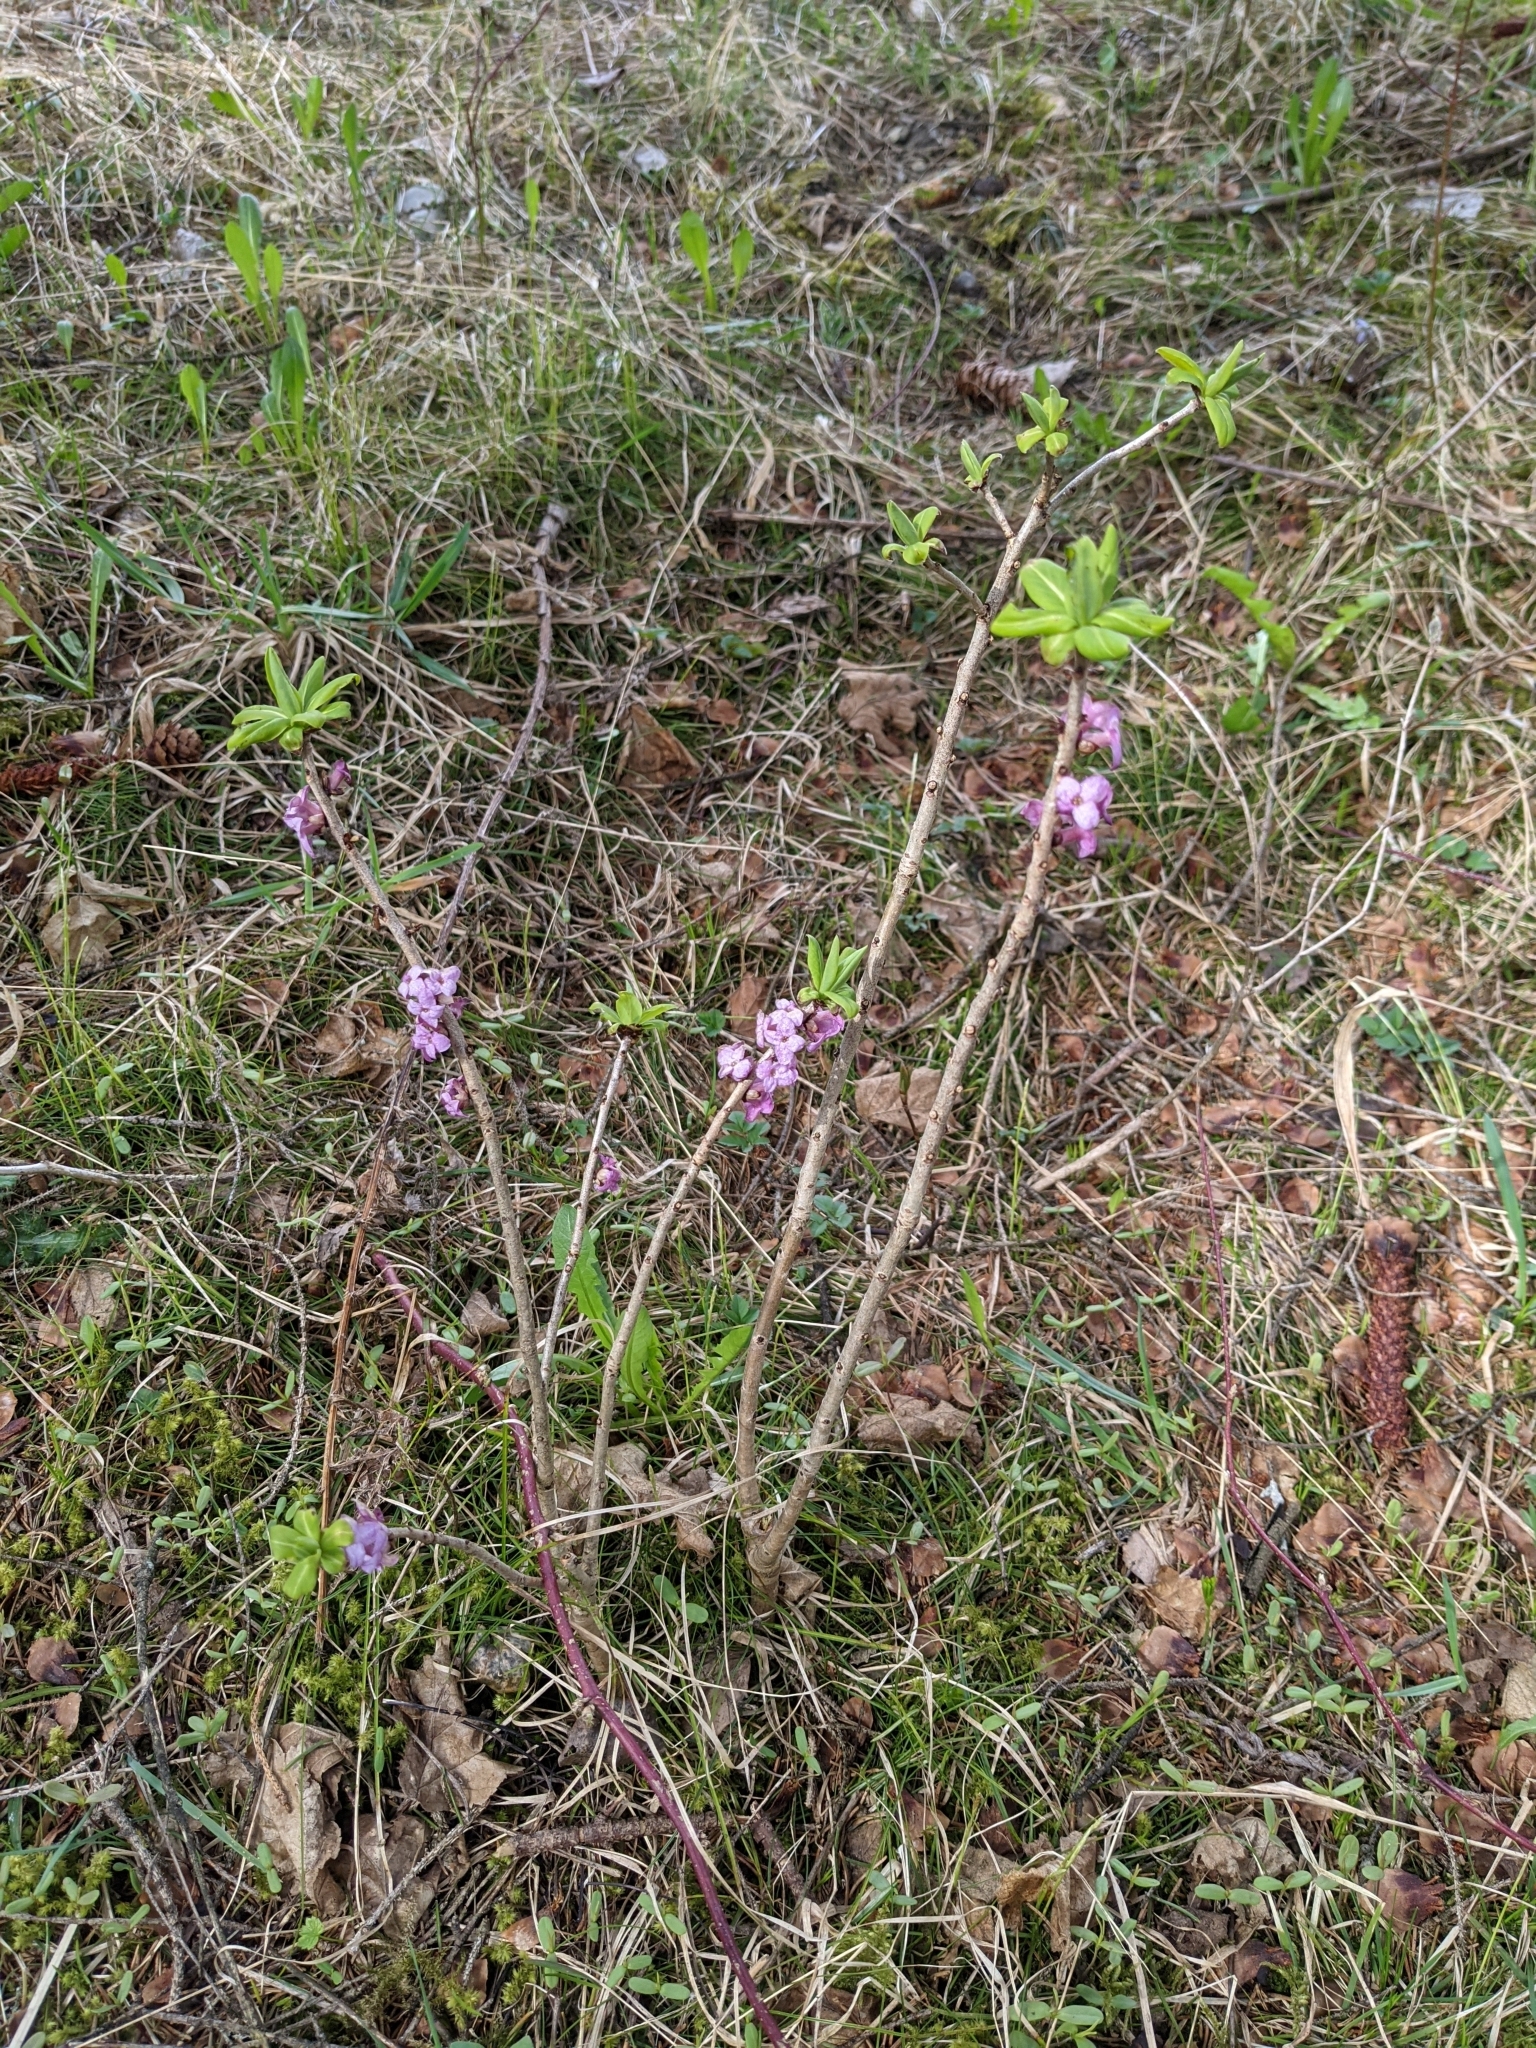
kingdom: Plantae
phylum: Tracheophyta
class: Magnoliopsida
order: Malvales
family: Thymelaeaceae
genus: Daphne
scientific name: Daphne mezereum
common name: Mezereon
